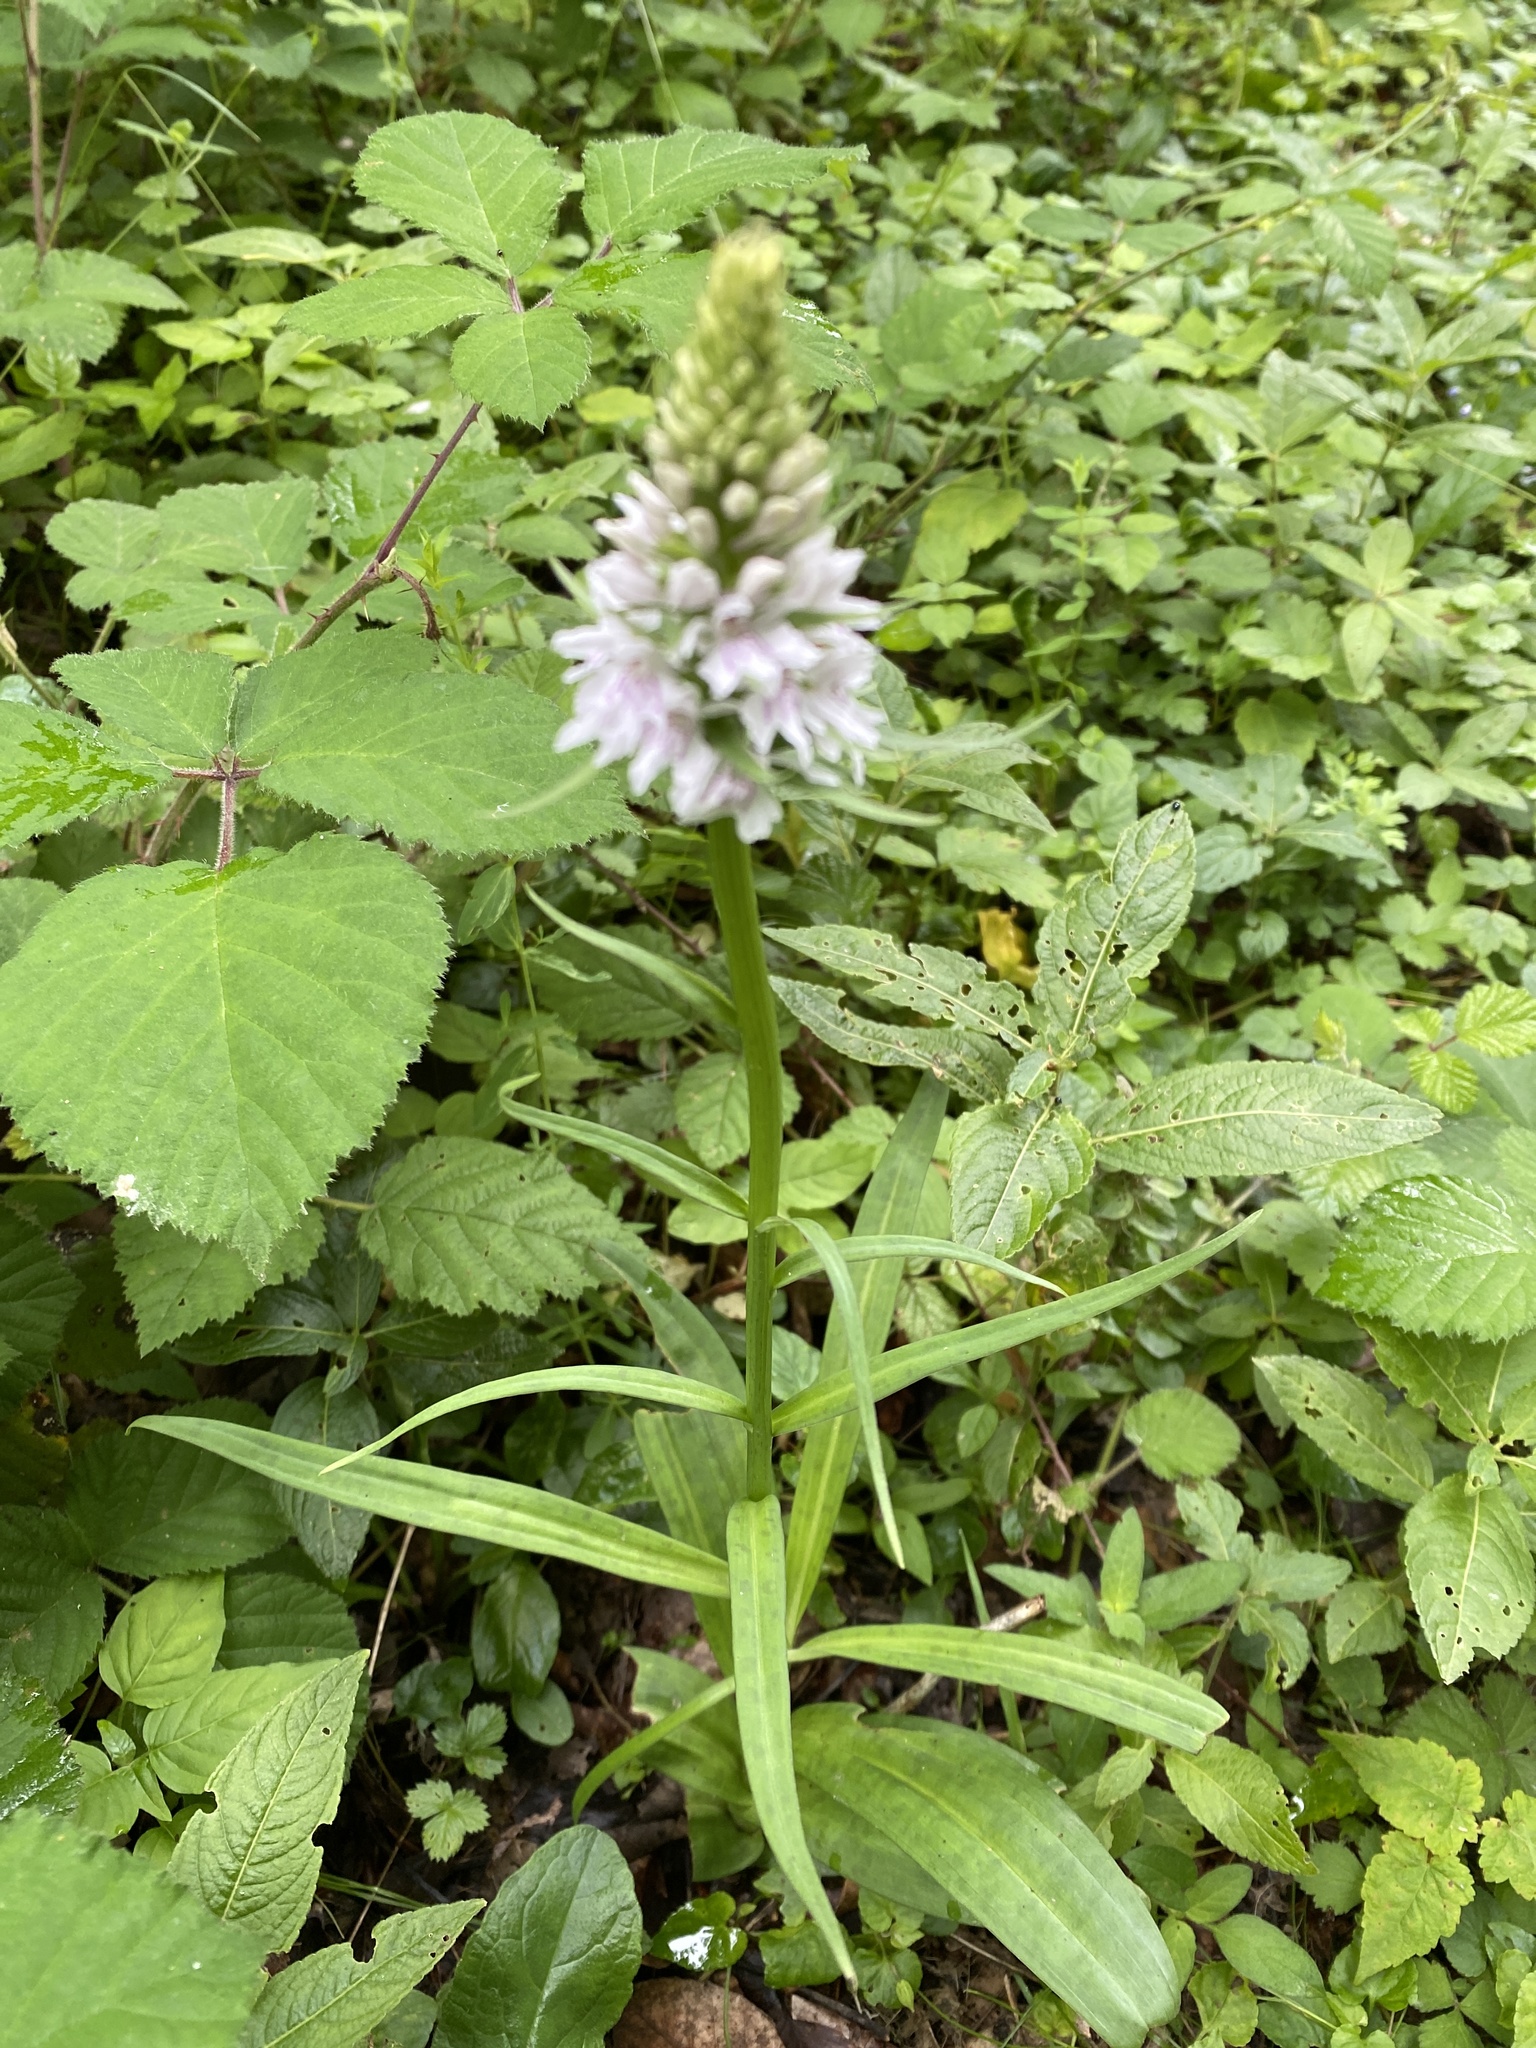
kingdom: Plantae
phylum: Tracheophyta
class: Liliopsida
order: Asparagales
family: Orchidaceae
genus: Dactylorhiza
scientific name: Dactylorhiza maculata
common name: Heath spotted-orchid
